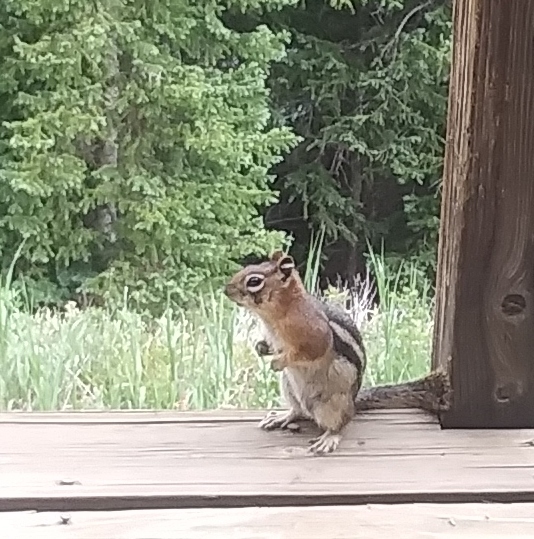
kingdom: Animalia
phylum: Chordata
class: Mammalia
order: Rodentia
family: Sciuridae
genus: Callospermophilus
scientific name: Callospermophilus lateralis
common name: Golden-mantled ground squirrel
